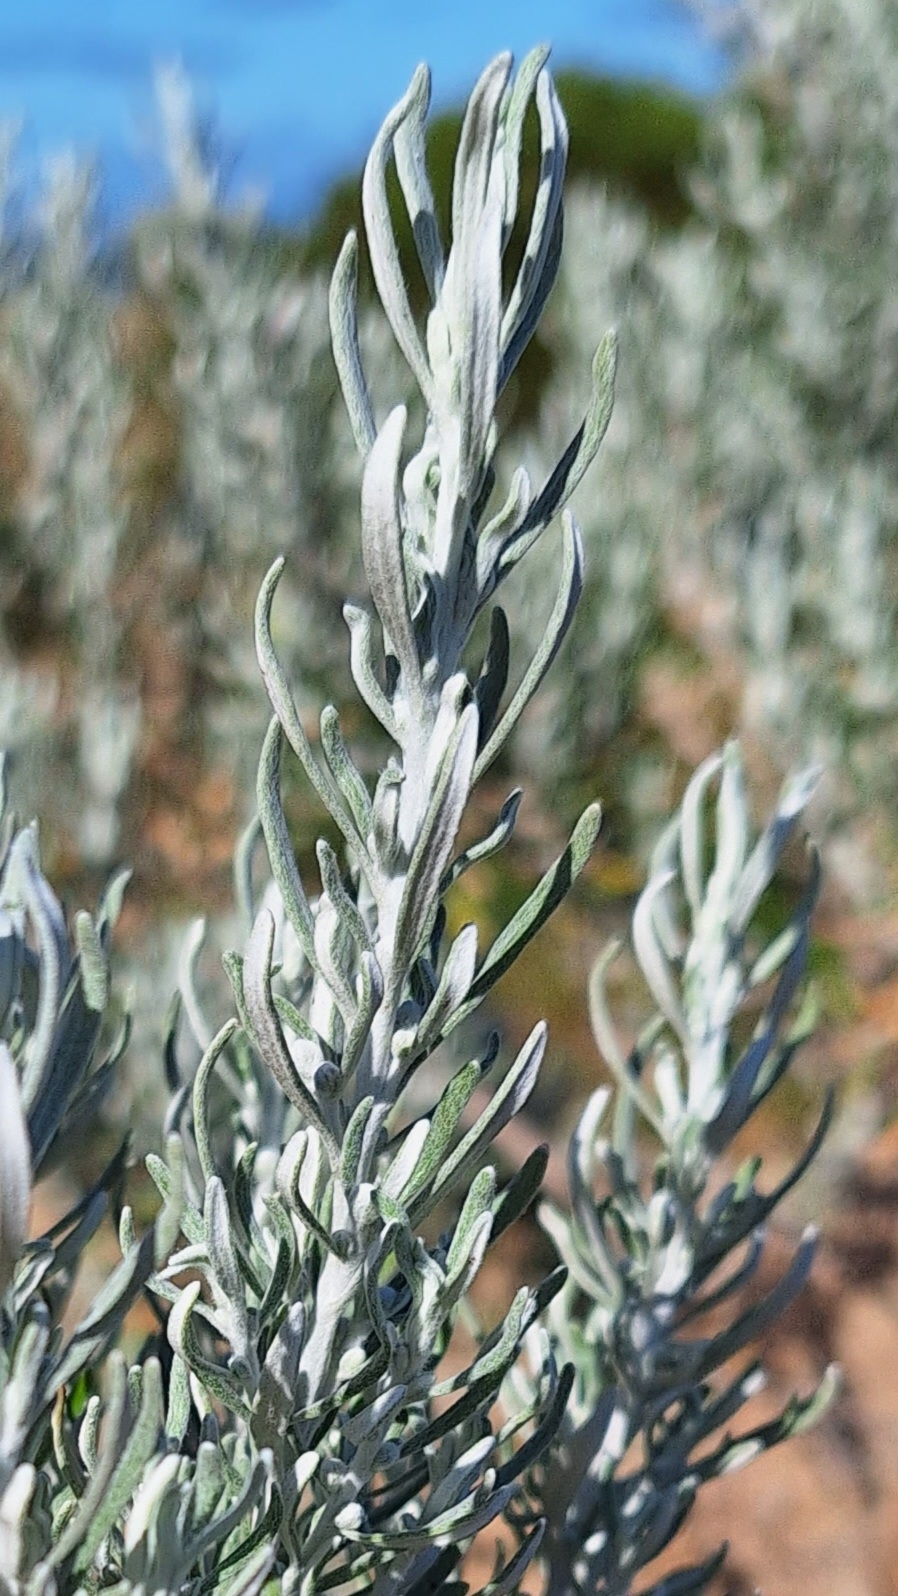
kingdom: Plantae
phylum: Tracheophyta
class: Magnoliopsida
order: Asterales
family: Asteraceae
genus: Olearia
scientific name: Olearia axillaris
